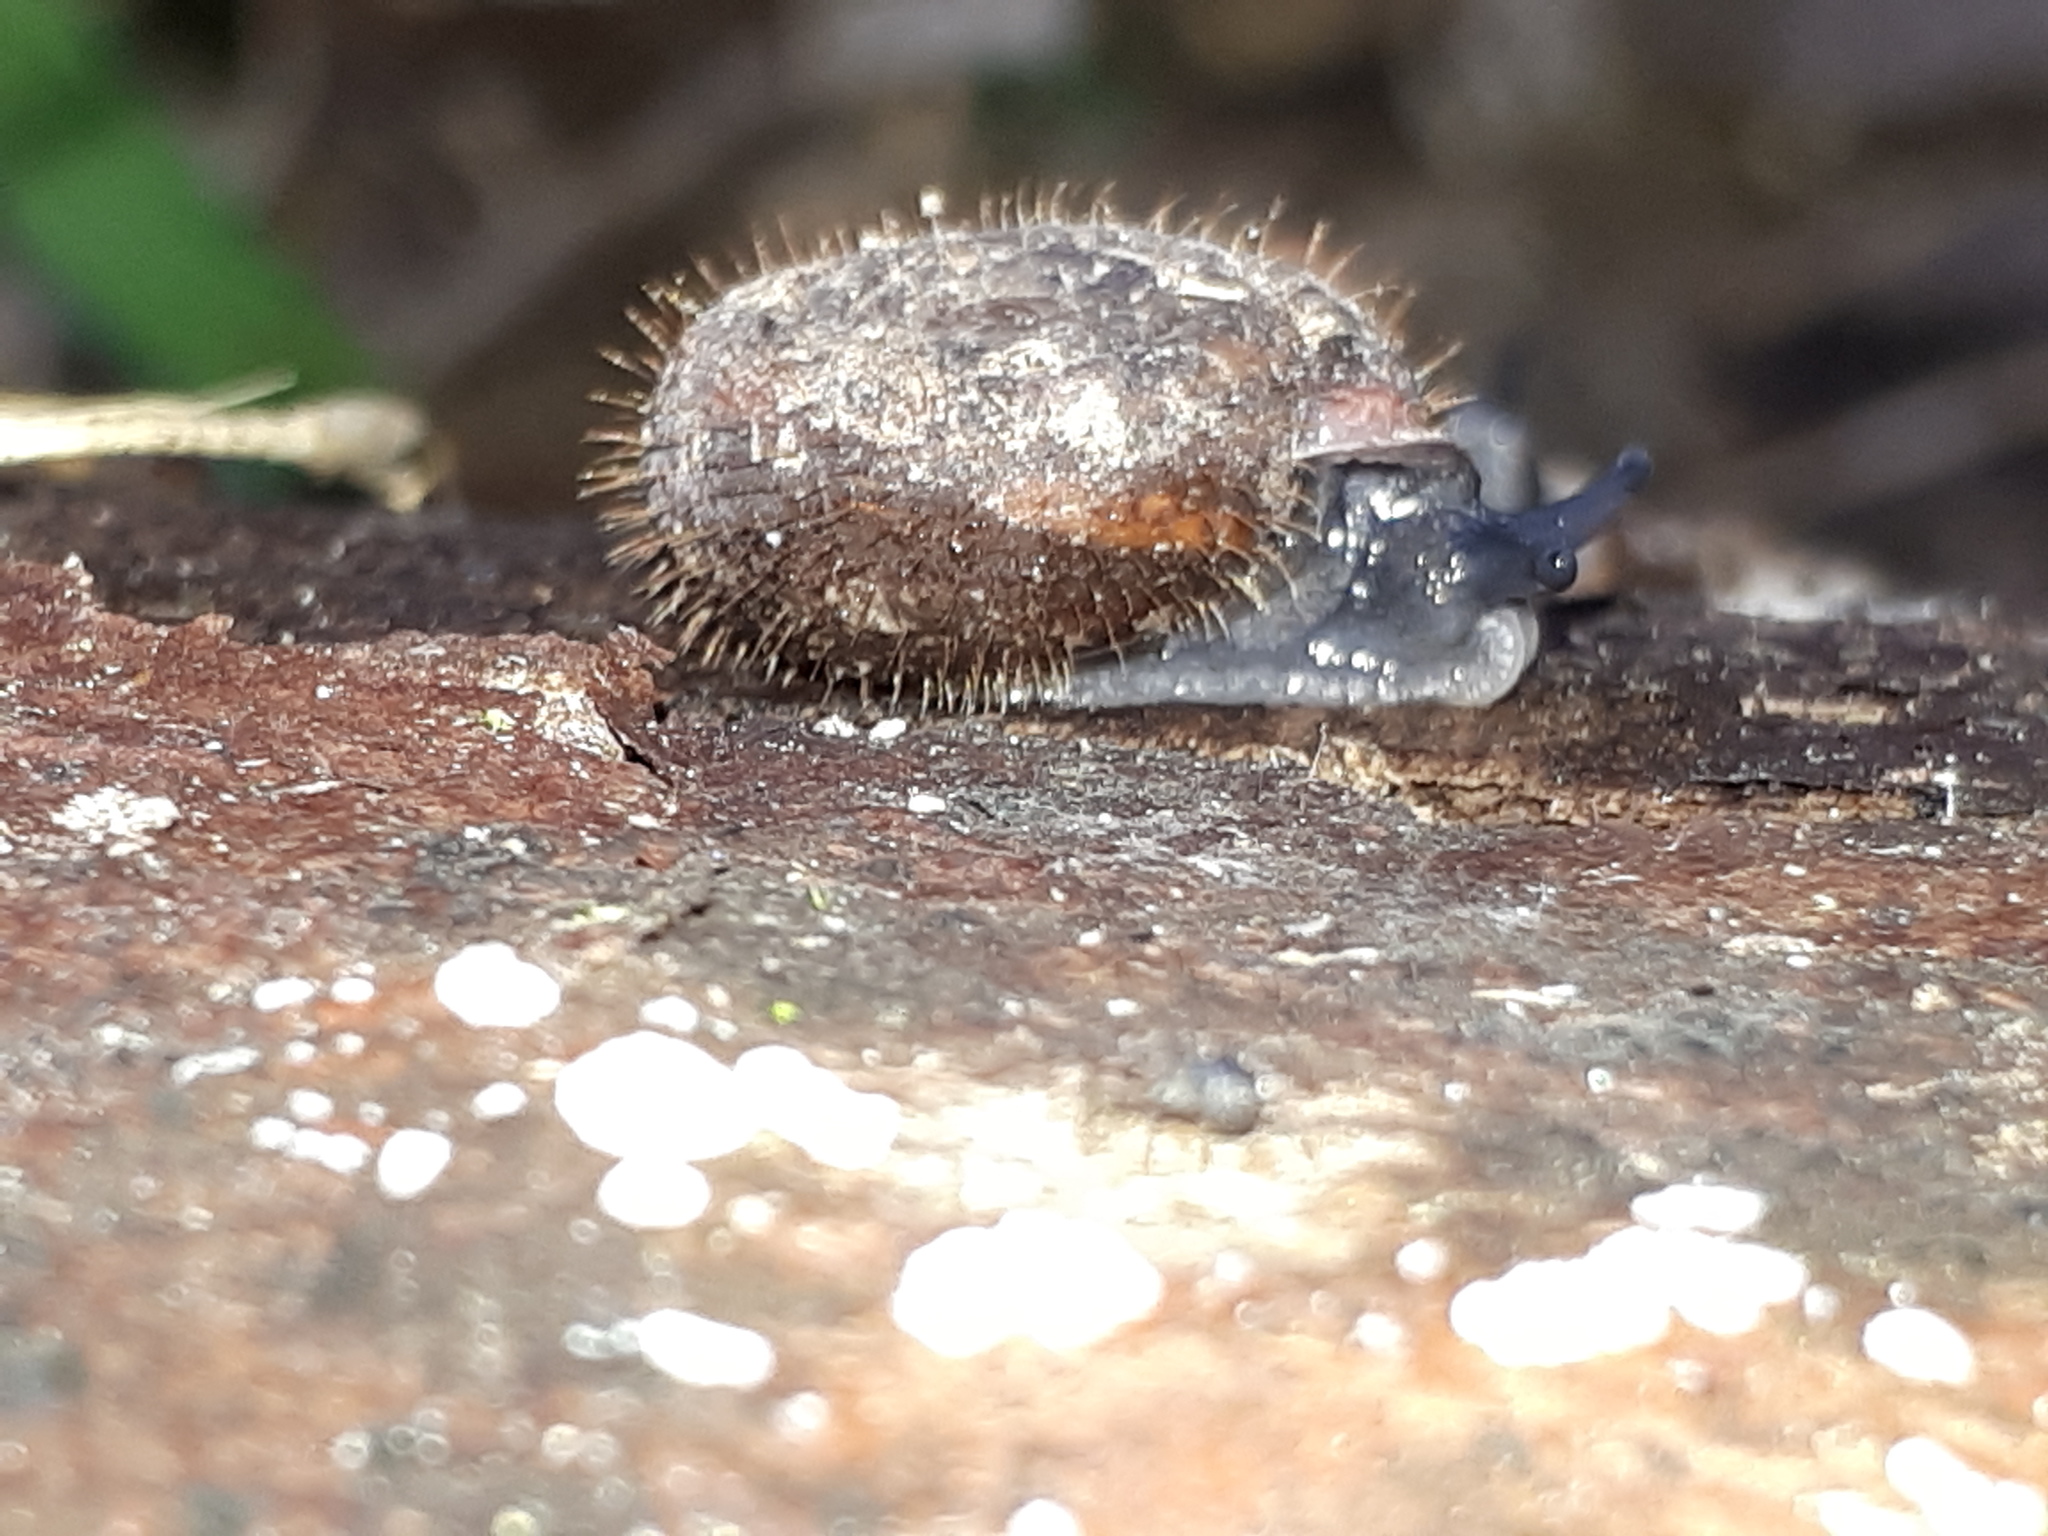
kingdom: Animalia
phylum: Mollusca
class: Gastropoda
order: Stylommatophora
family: Helicodontidae
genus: Helicodonta
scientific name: Helicodonta obvoluta
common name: Cheese snail
